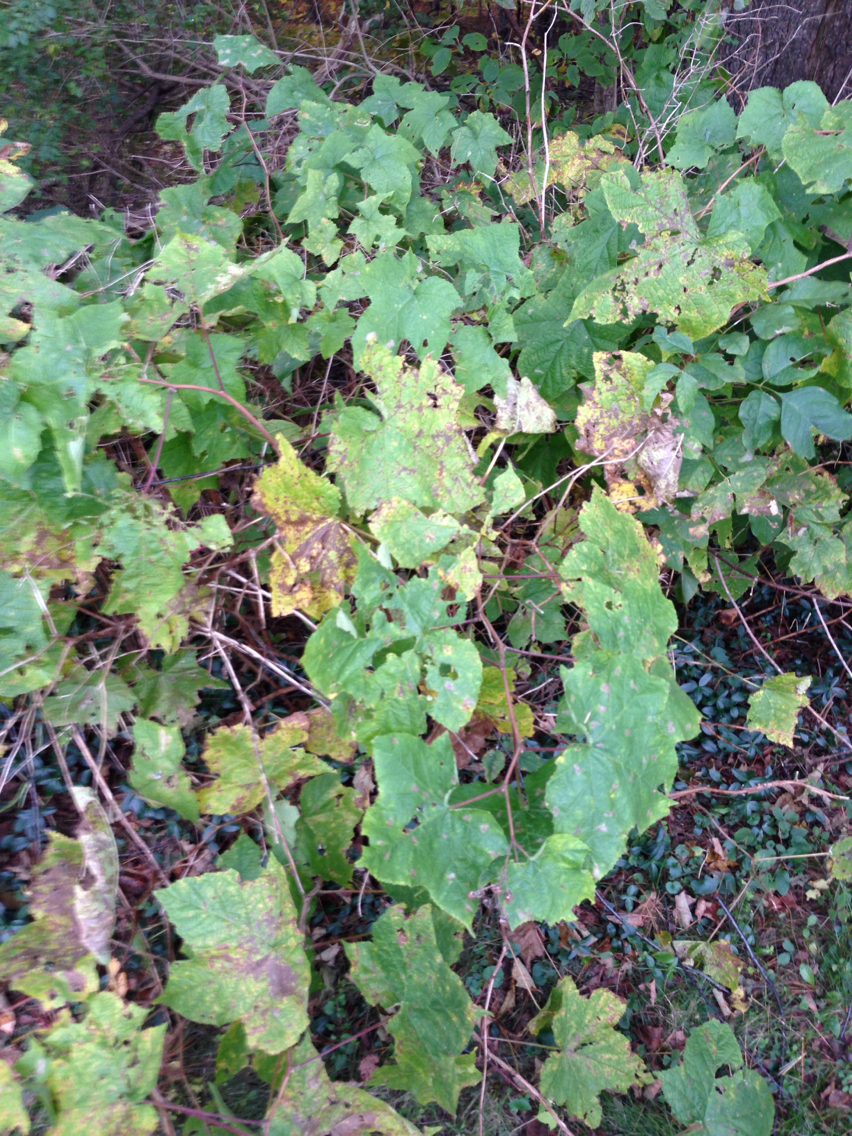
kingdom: Plantae
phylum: Tracheophyta
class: Magnoliopsida
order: Rosales
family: Rosaceae
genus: Rubus
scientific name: Rubus odoratus
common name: Purple-flowered raspberry
